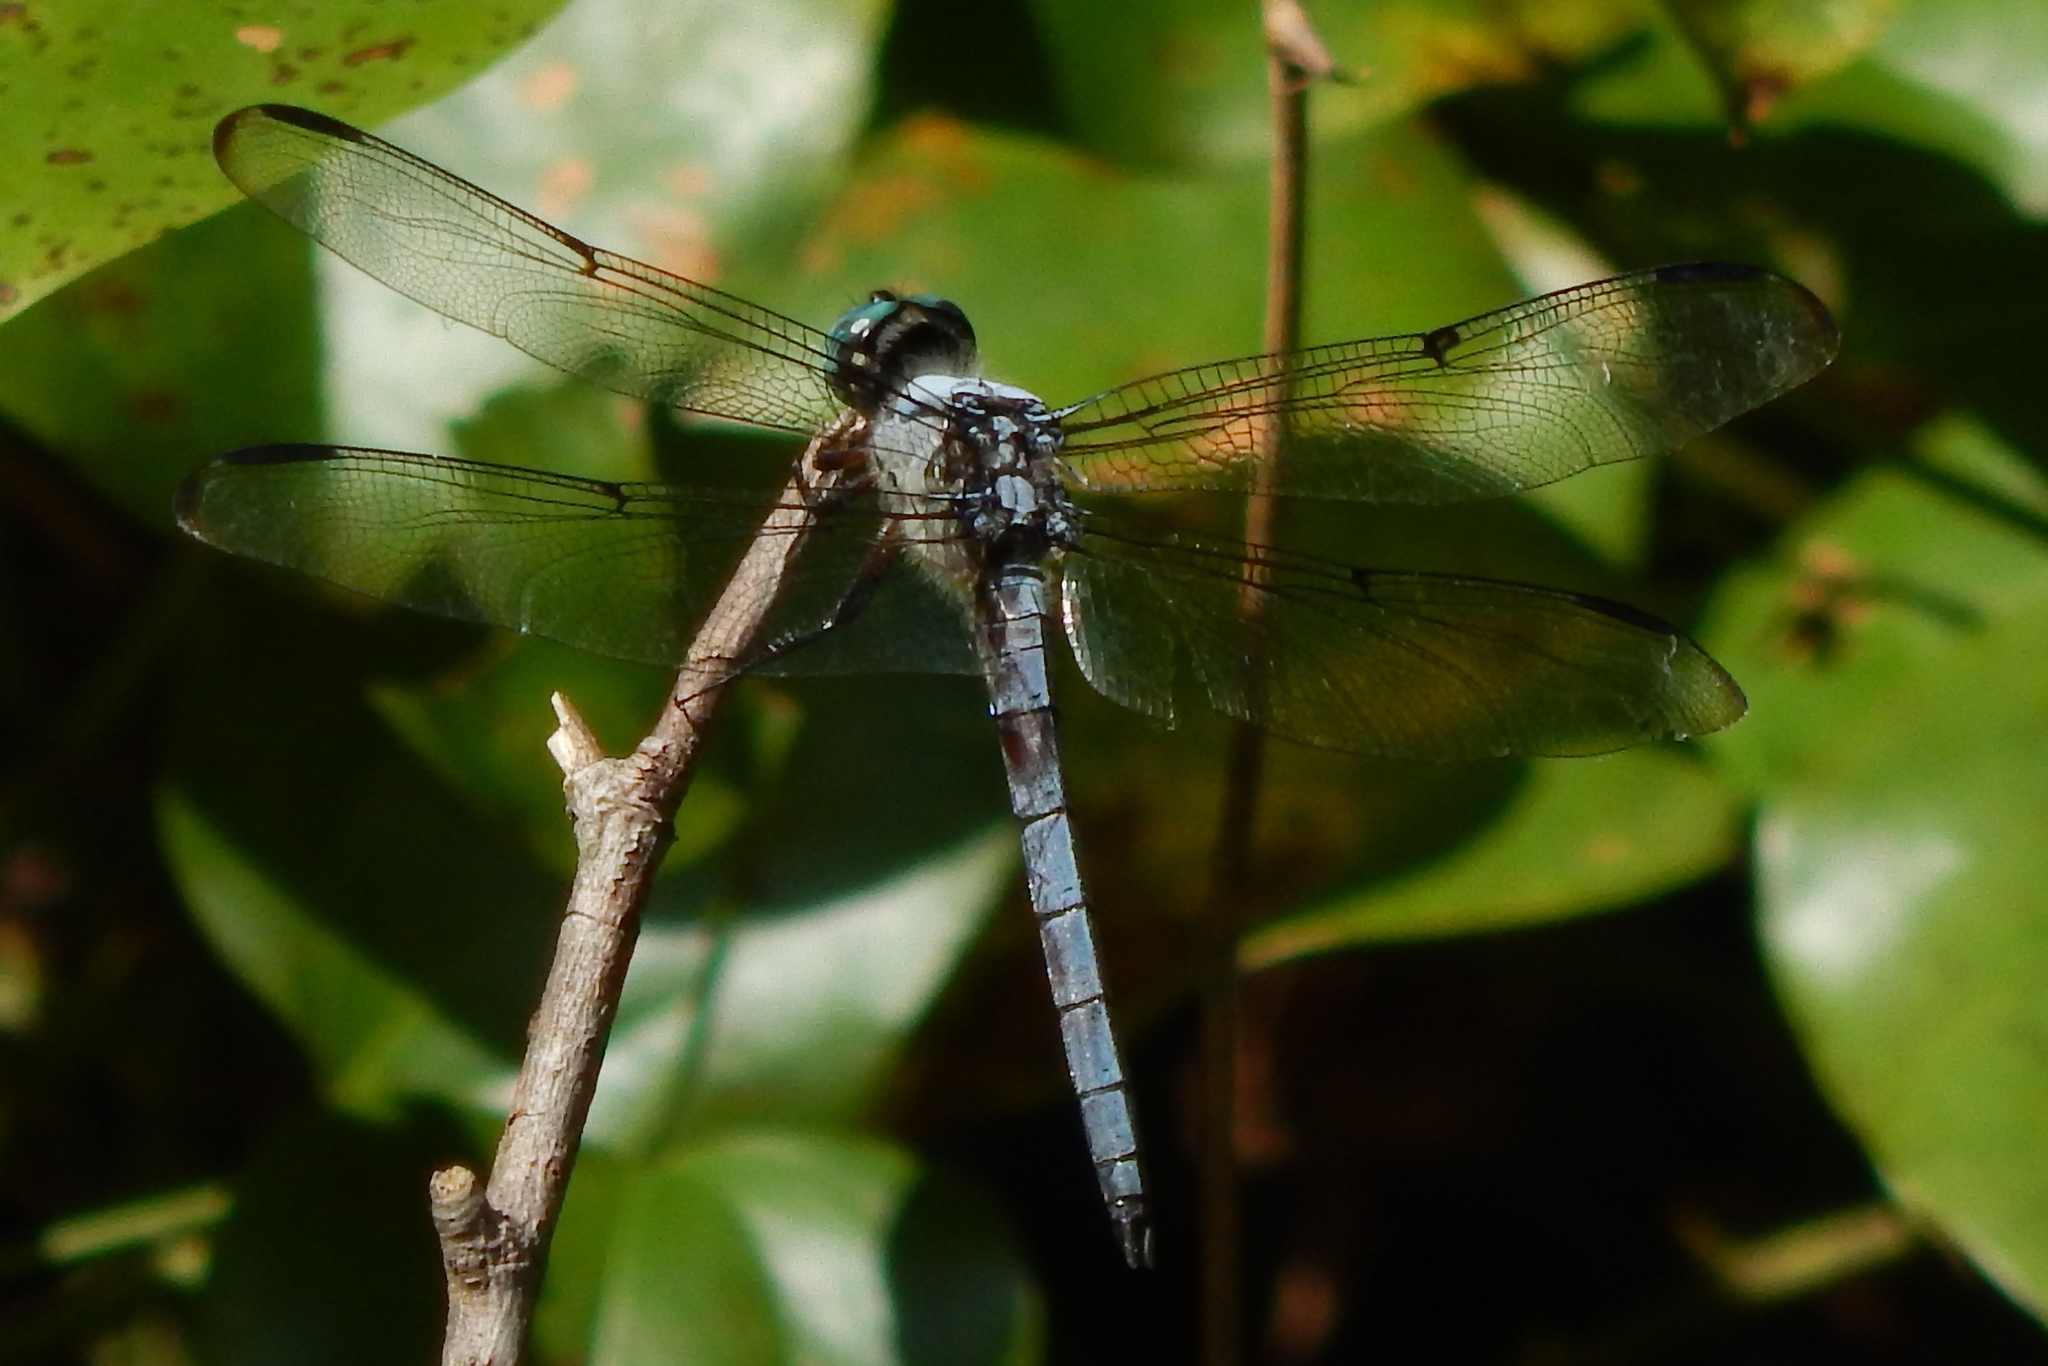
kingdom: Animalia
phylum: Arthropoda
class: Insecta
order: Odonata
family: Libellulidae
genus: Libellula
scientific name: Libellula vibrans
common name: Great blue skimmer
